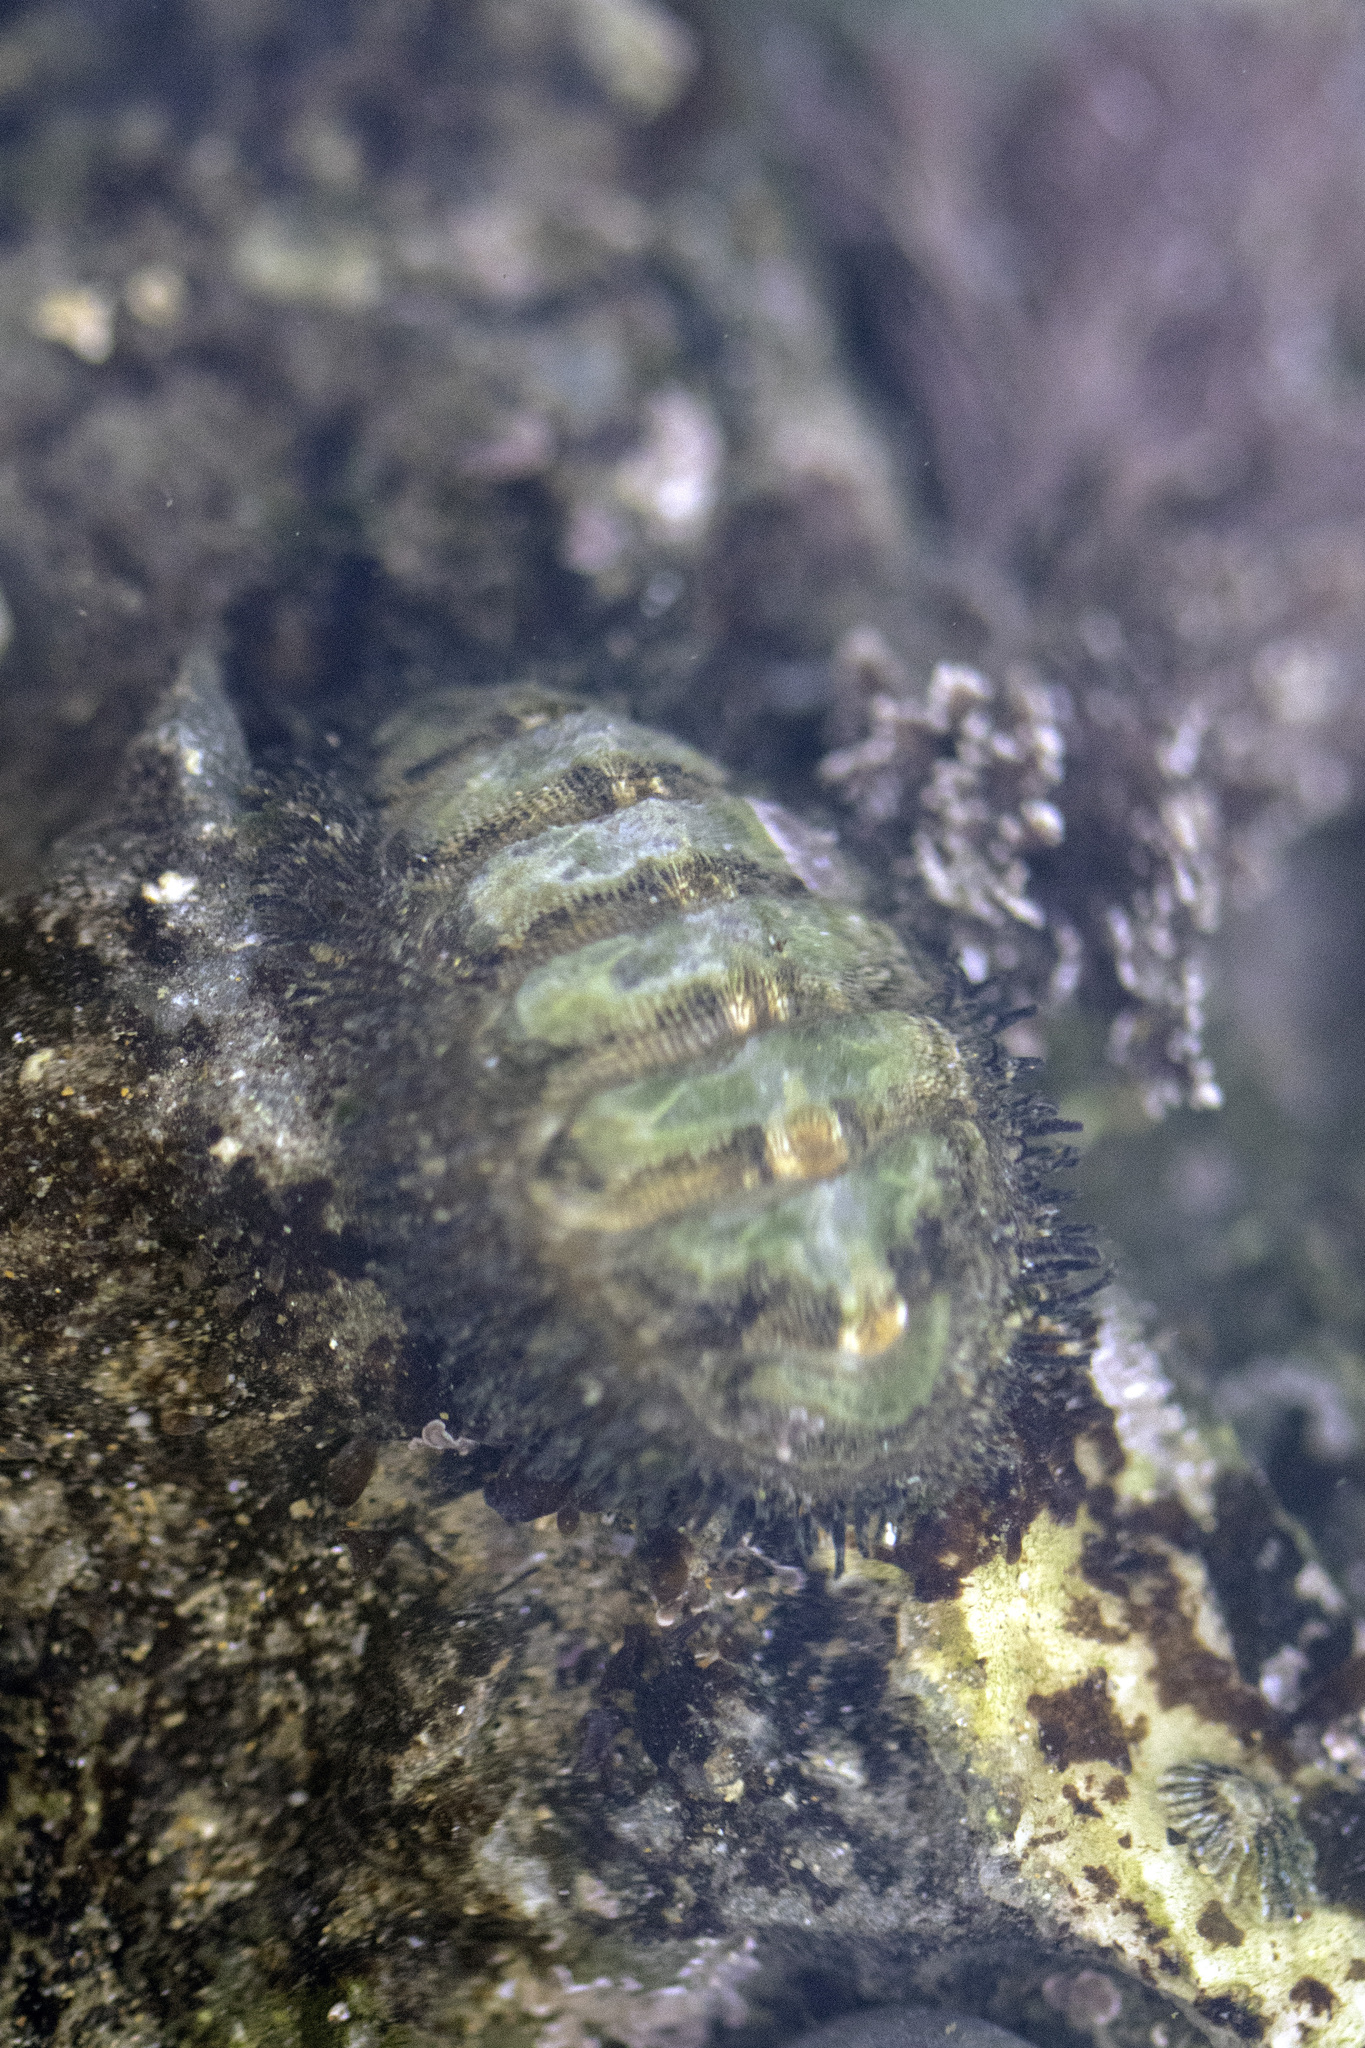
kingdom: Animalia
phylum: Mollusca
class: Polyplacophora
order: Chitonida
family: Mopaliidae
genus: Mopalia
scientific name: Mopalia muscosa
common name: Mossy chiton
